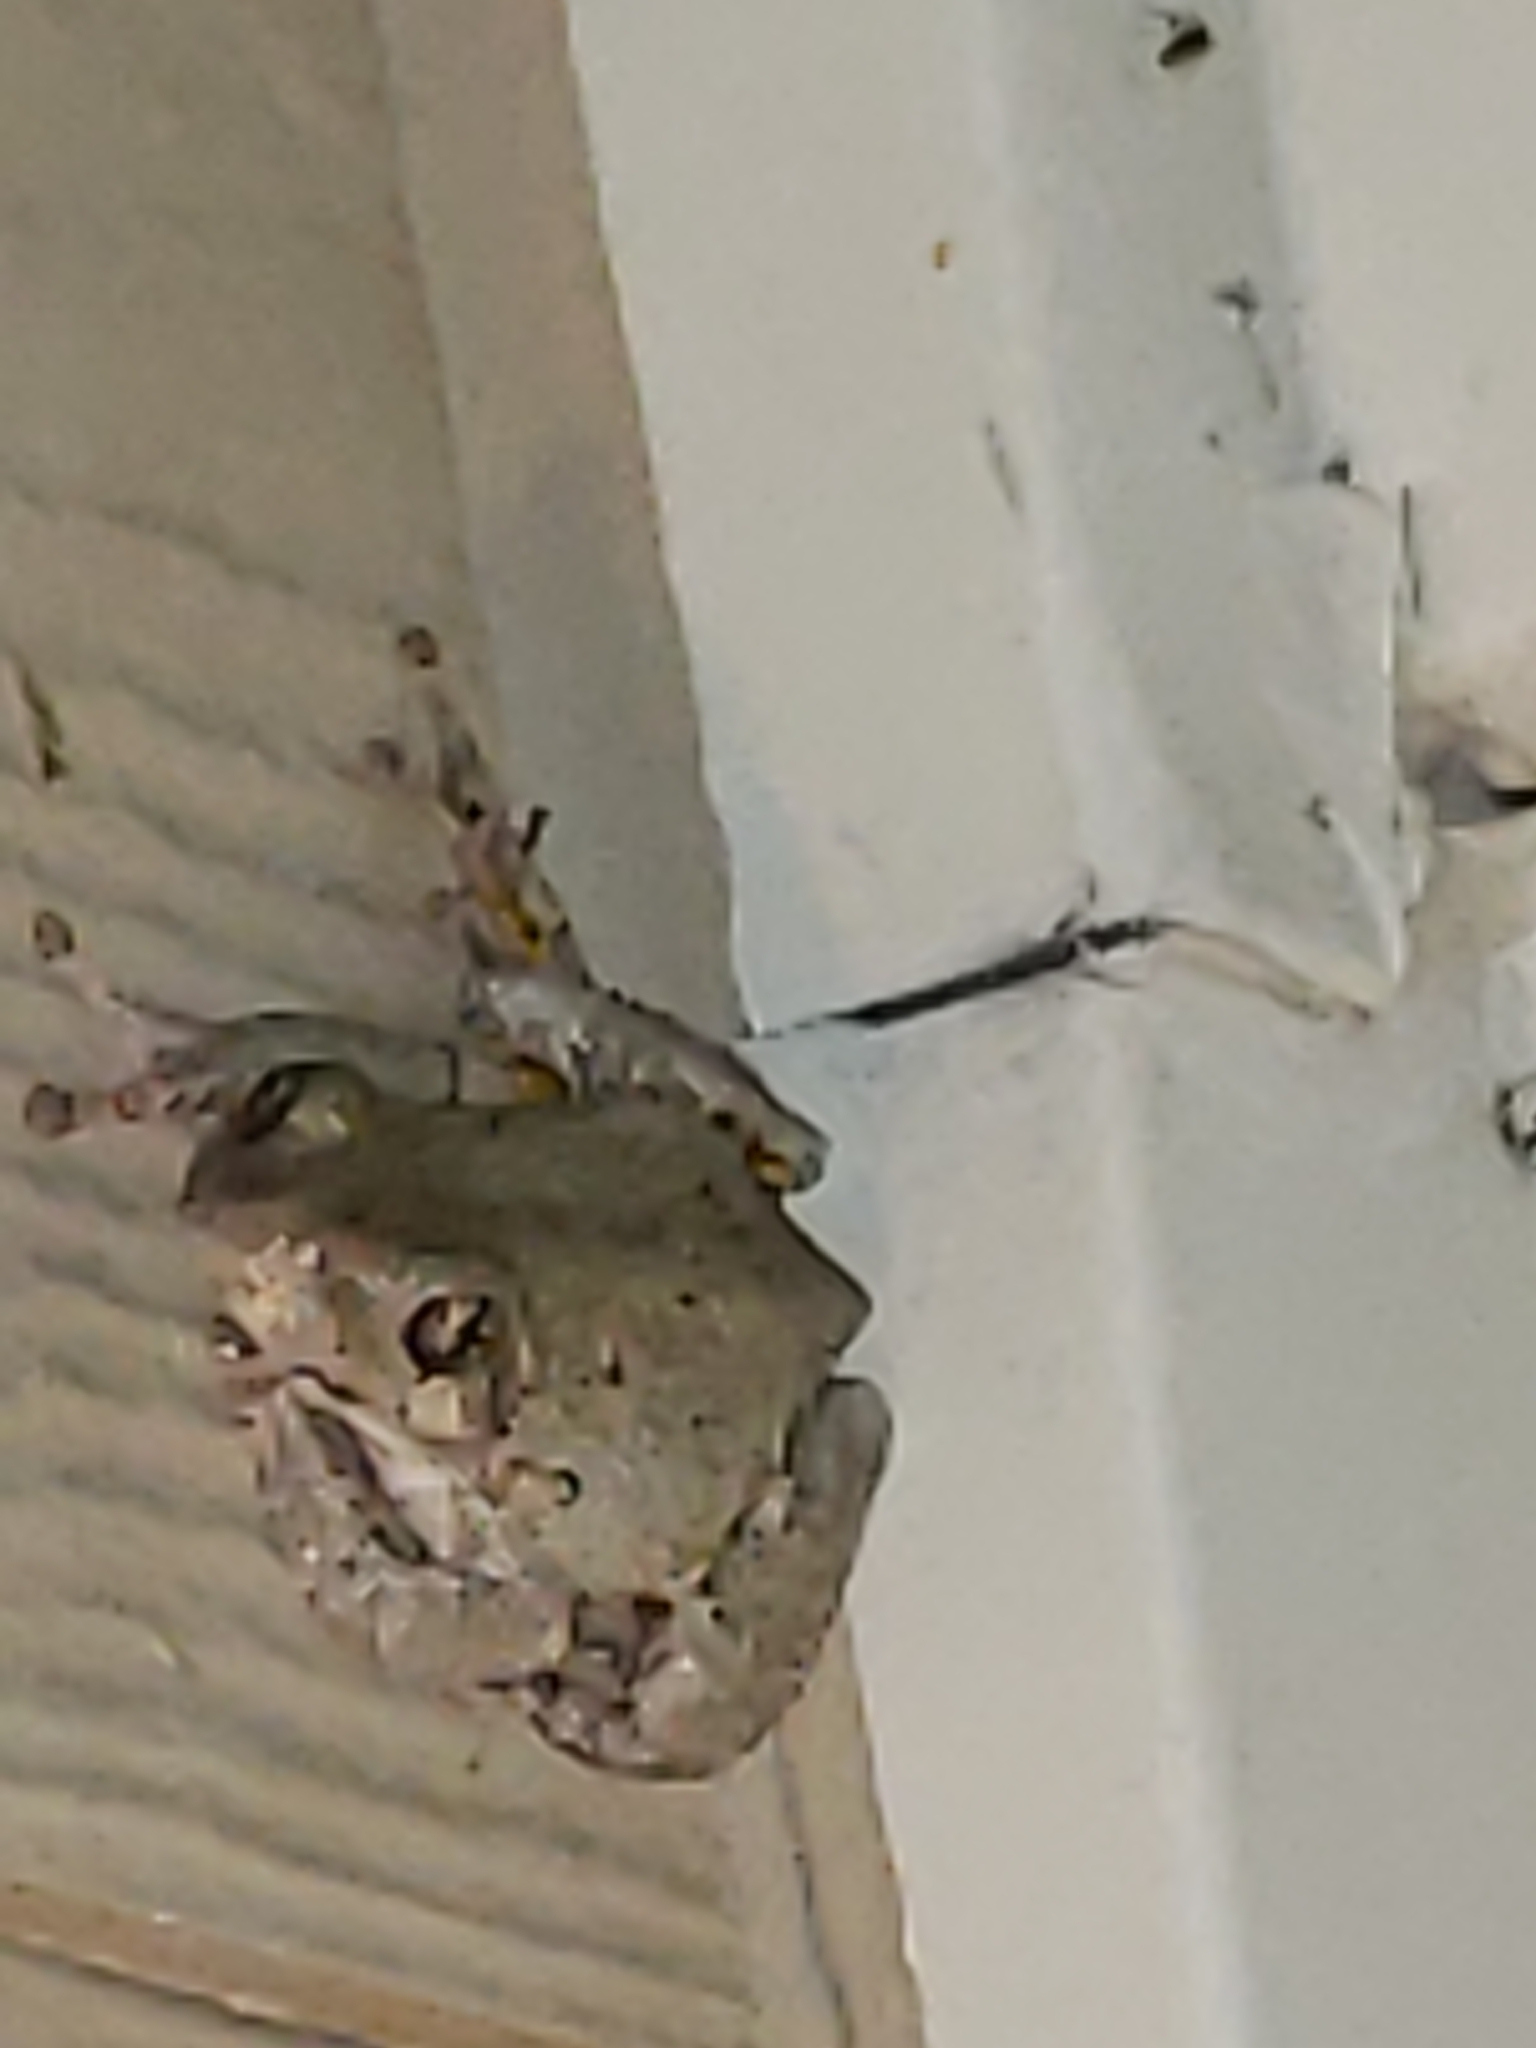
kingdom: Animalia
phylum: Chordata
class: Amphibia
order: Anura
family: Hylidae
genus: Hyla
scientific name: Hyla
